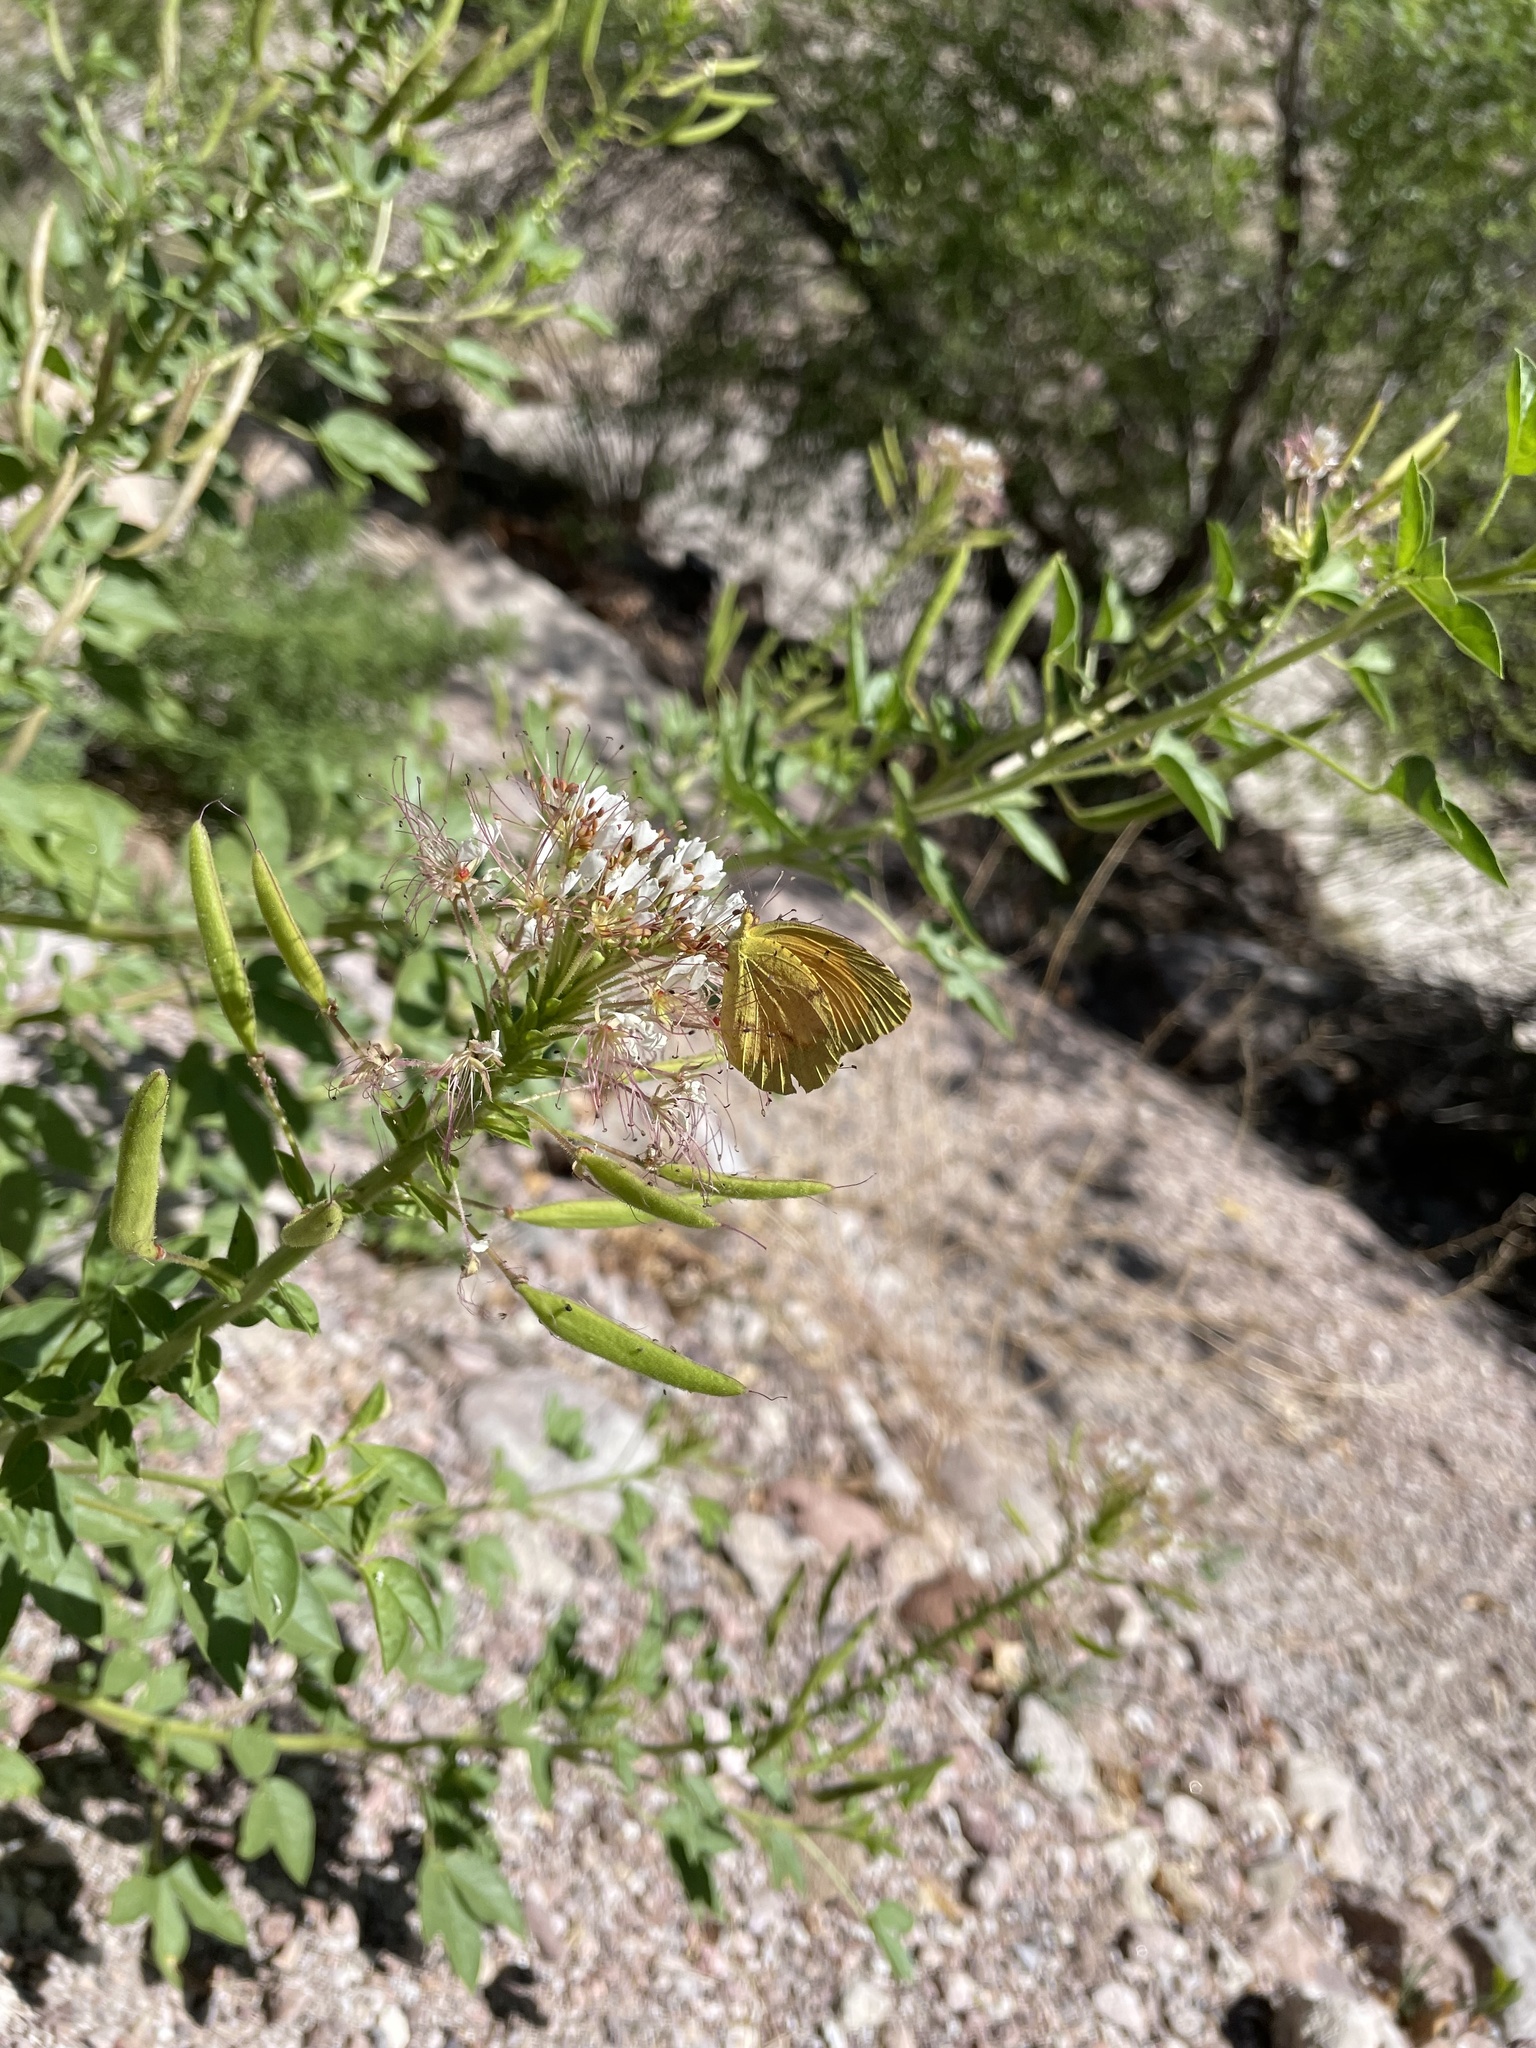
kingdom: Animalia
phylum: Arthropoda
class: Insecta
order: Lepidoptera
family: Pieridae
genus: Abaeis
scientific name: Abaeis nicippe
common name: Sleepy orange
